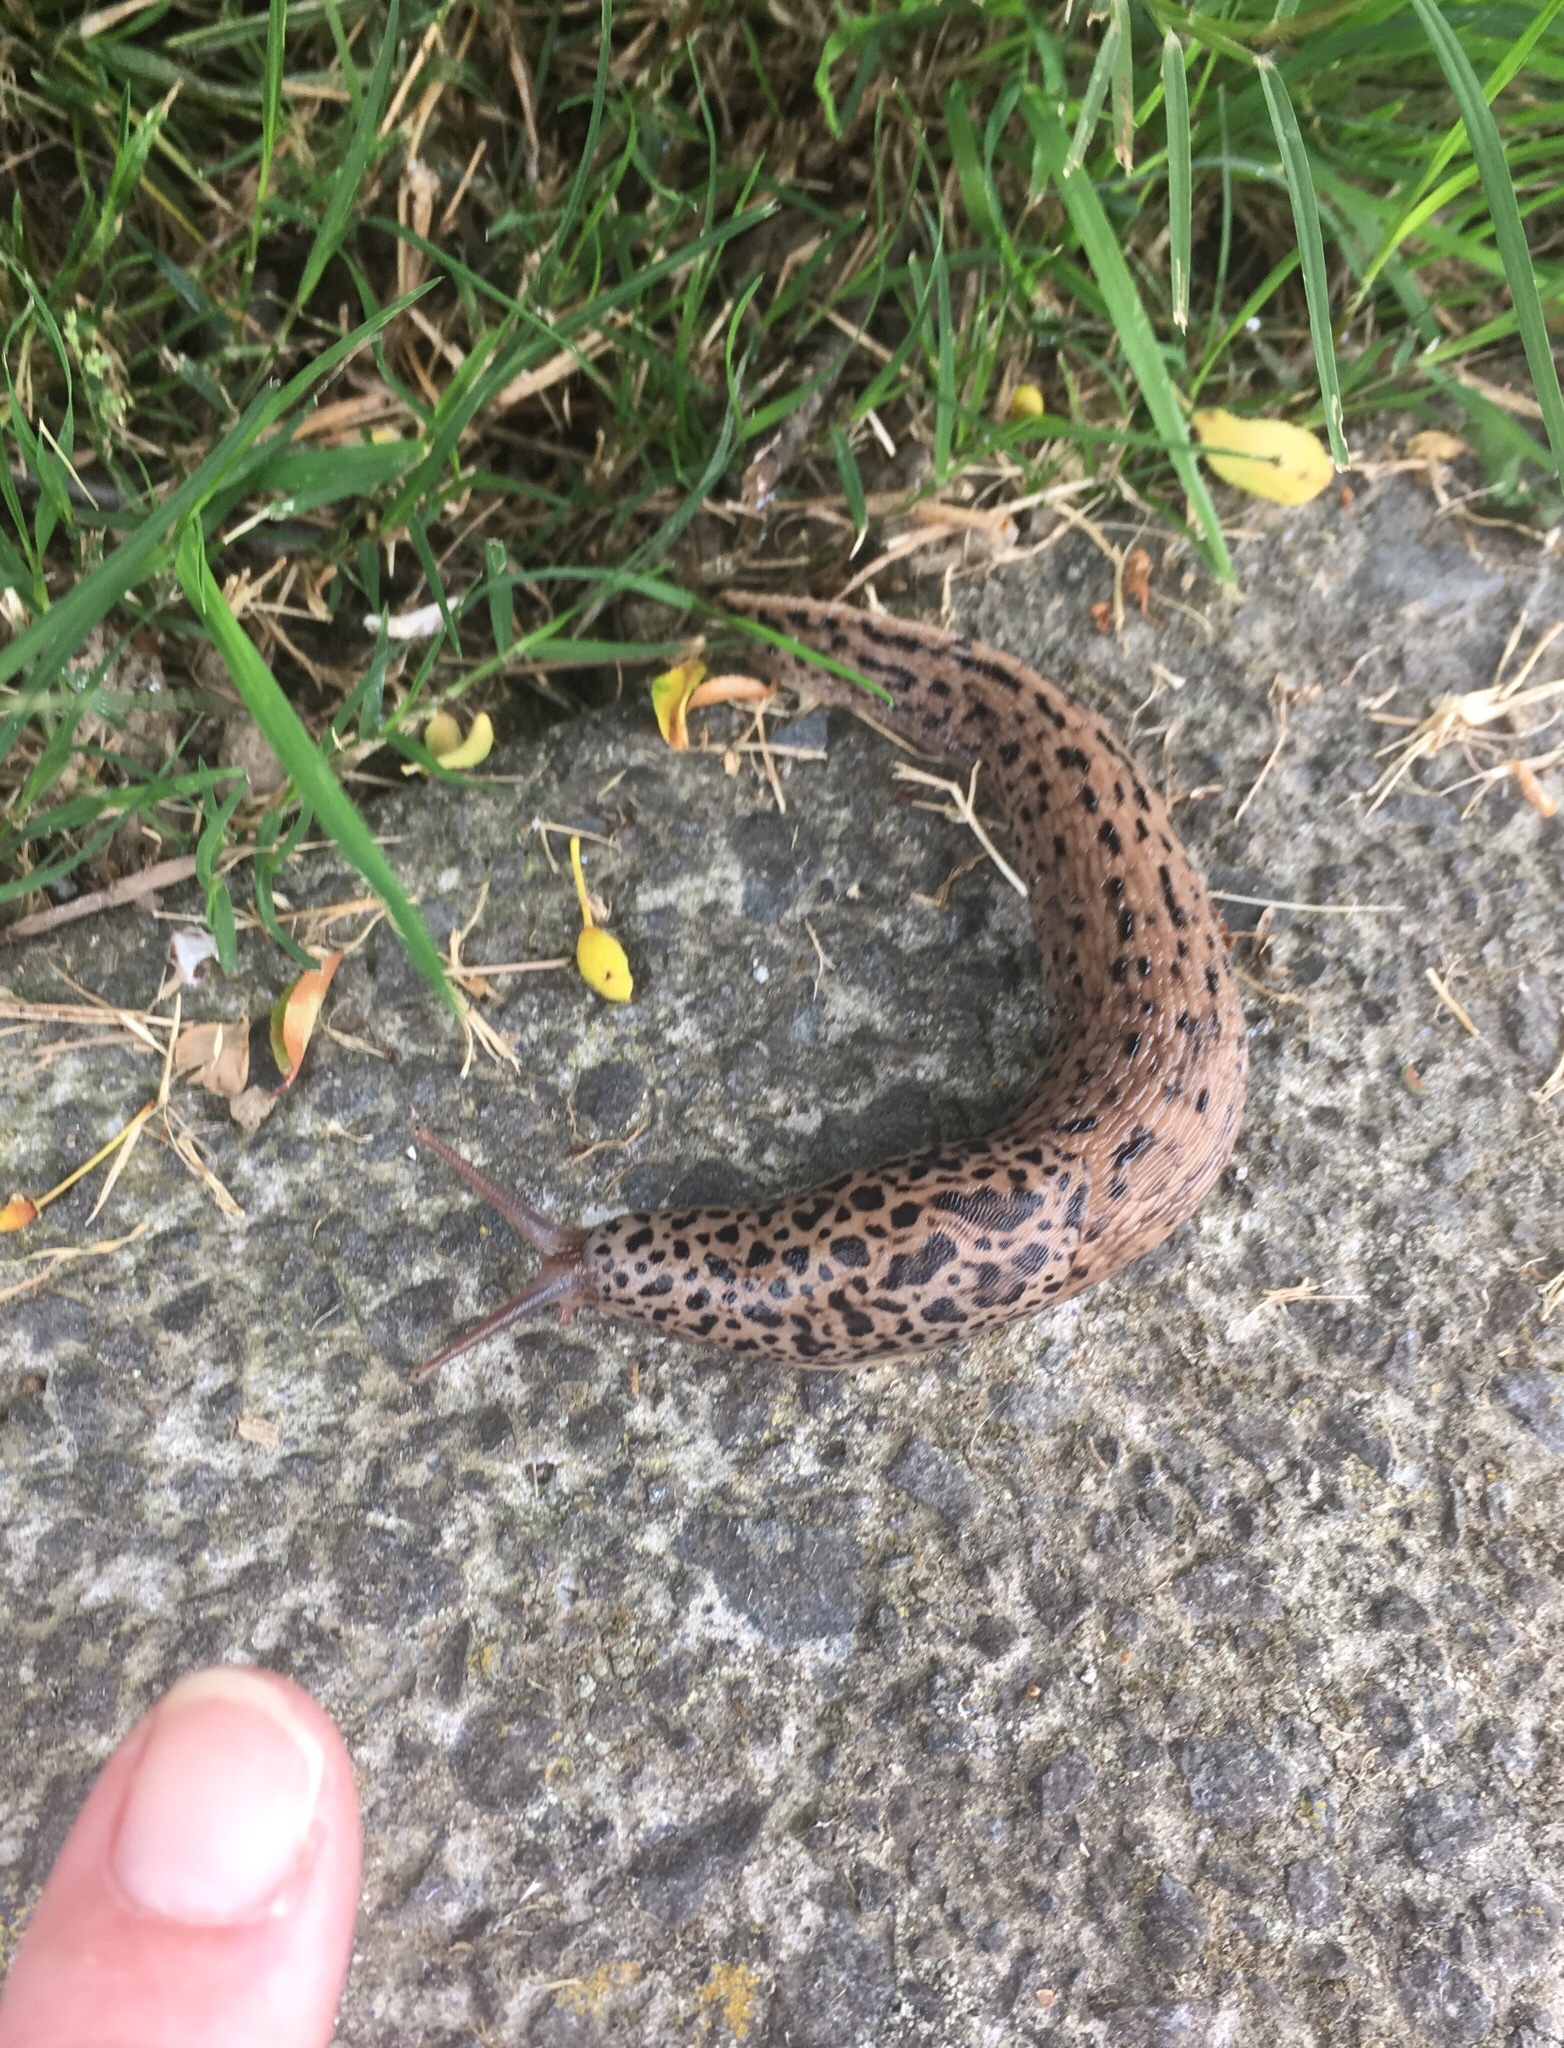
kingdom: Animalia
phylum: Mollusca
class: Gastropoda
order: Stylommatophora
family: Limacidae
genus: Limax
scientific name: Limax maximus
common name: Great grey slug
